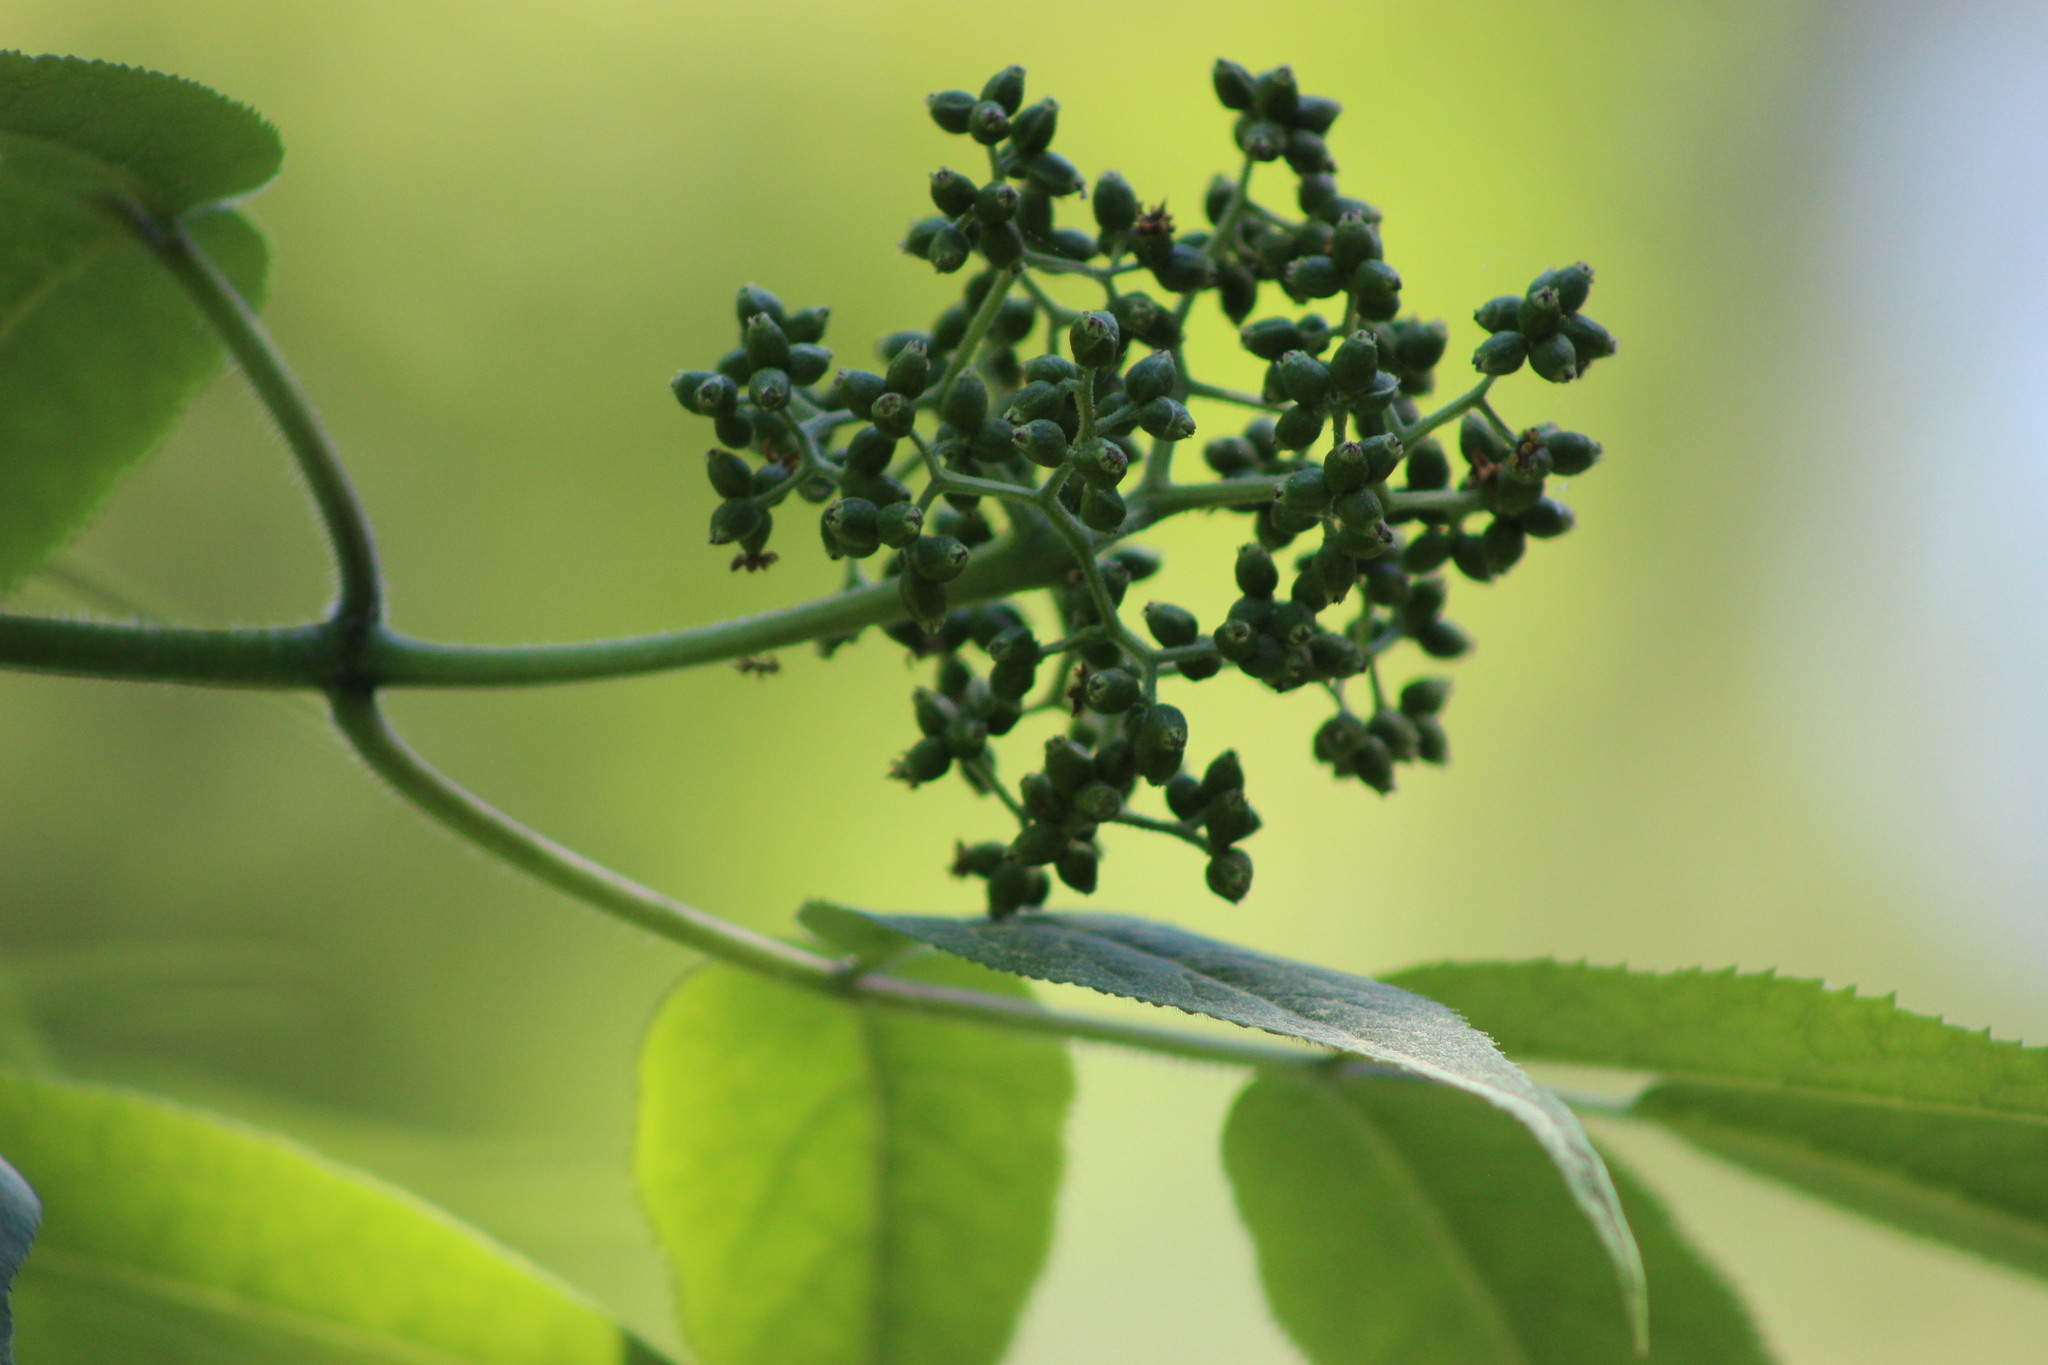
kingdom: Plantae
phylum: Tracheophyta
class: Magnoliopsida
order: Dipsacales
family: Viburnaceae
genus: Sambucus
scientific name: Sambucus sibirica
